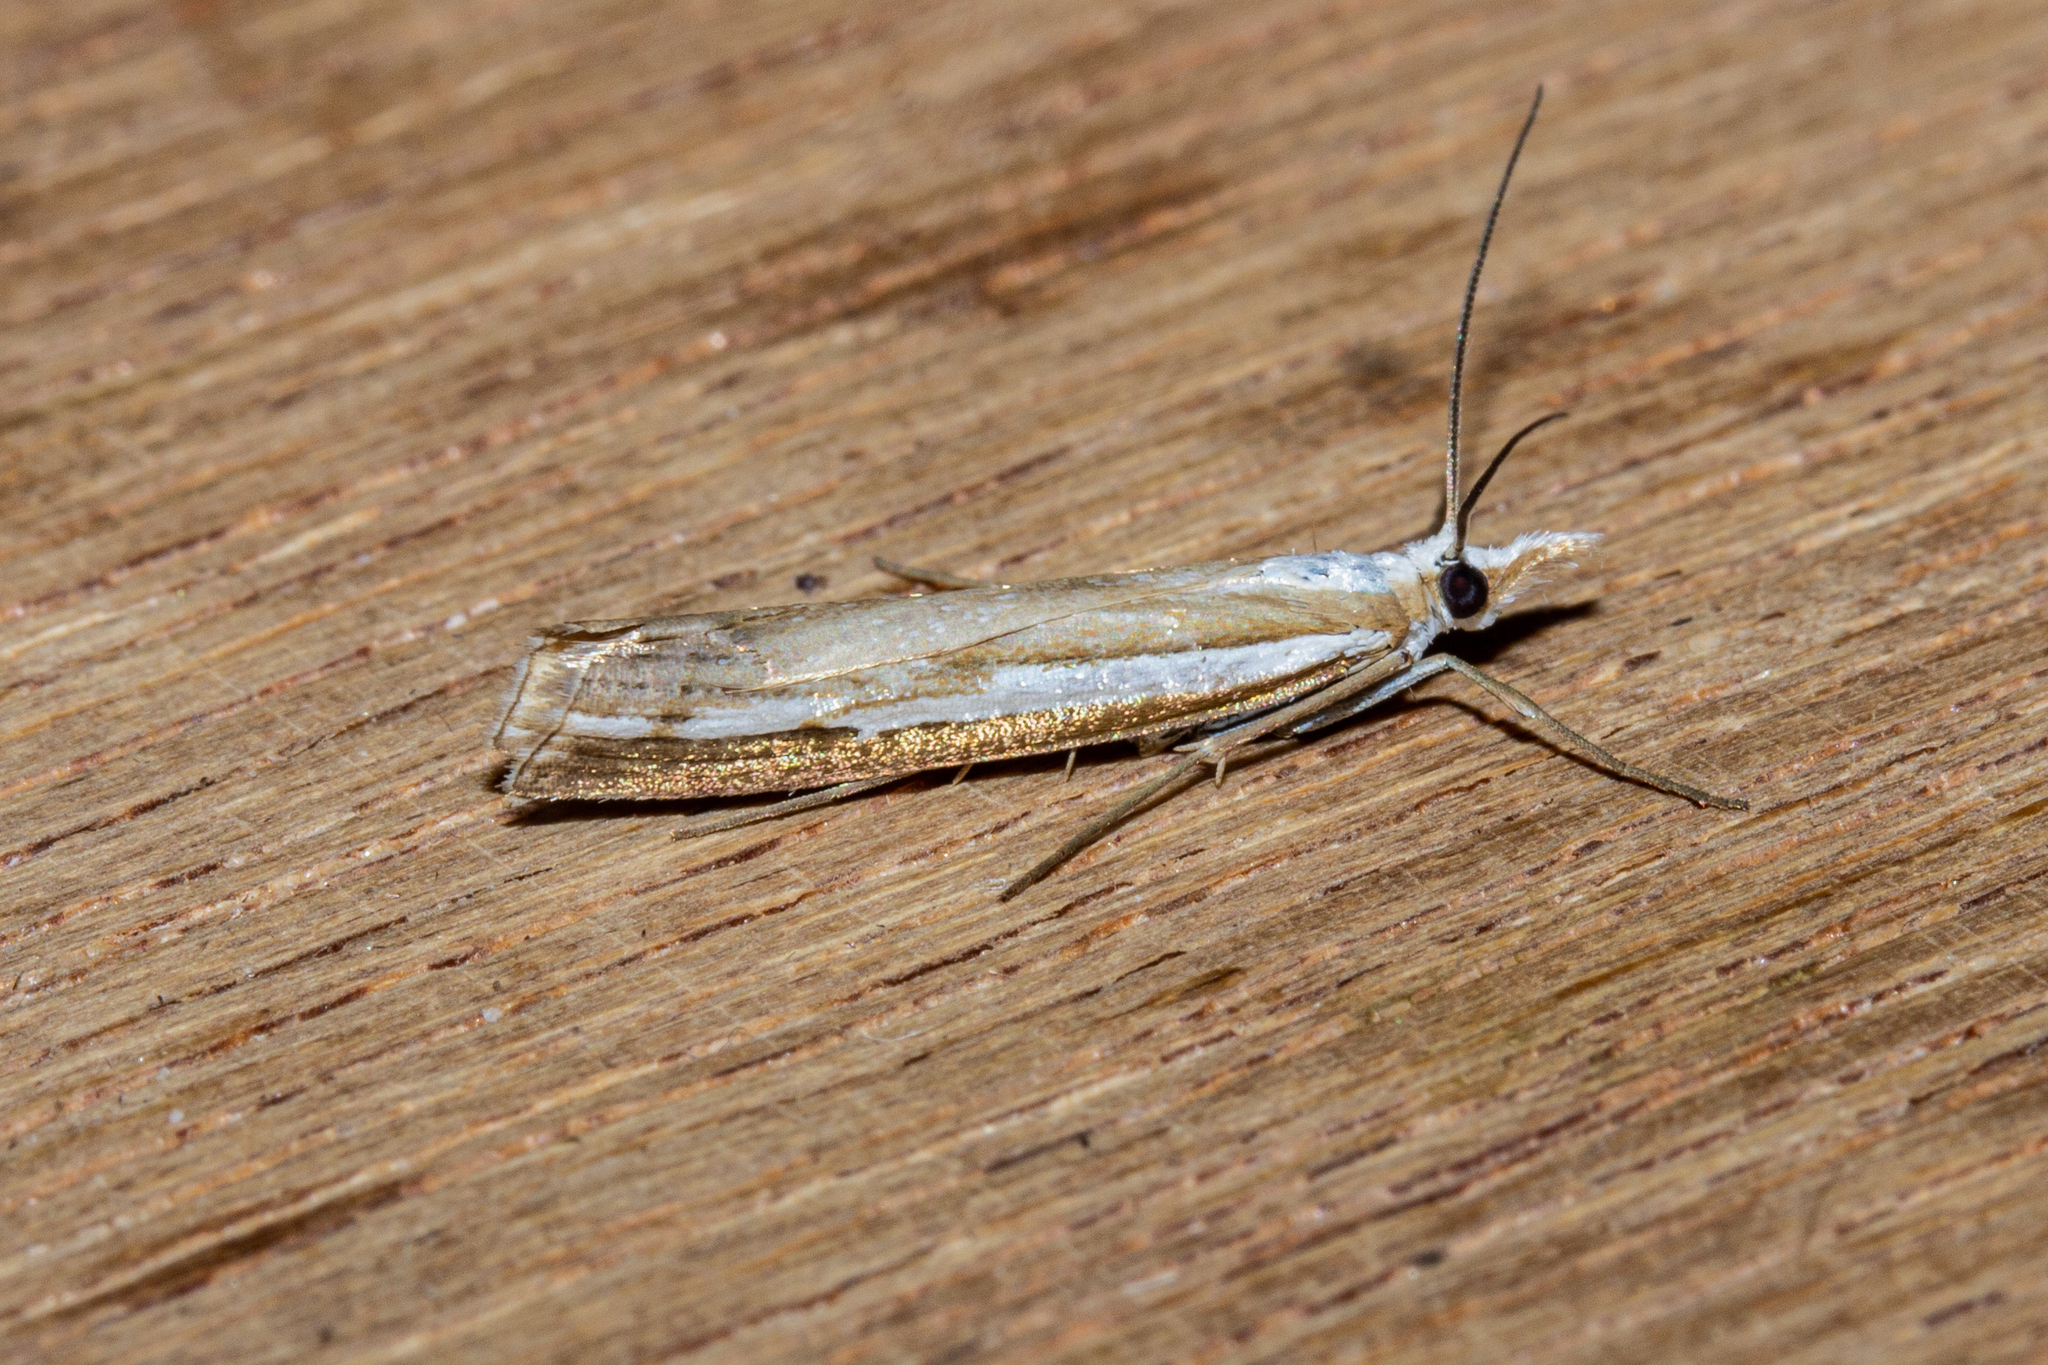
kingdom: Animalia
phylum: Arthropoda
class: Insecta
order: Lepidoptera
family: Crambidae
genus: Orocrambus
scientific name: Orocrambus vittellus
